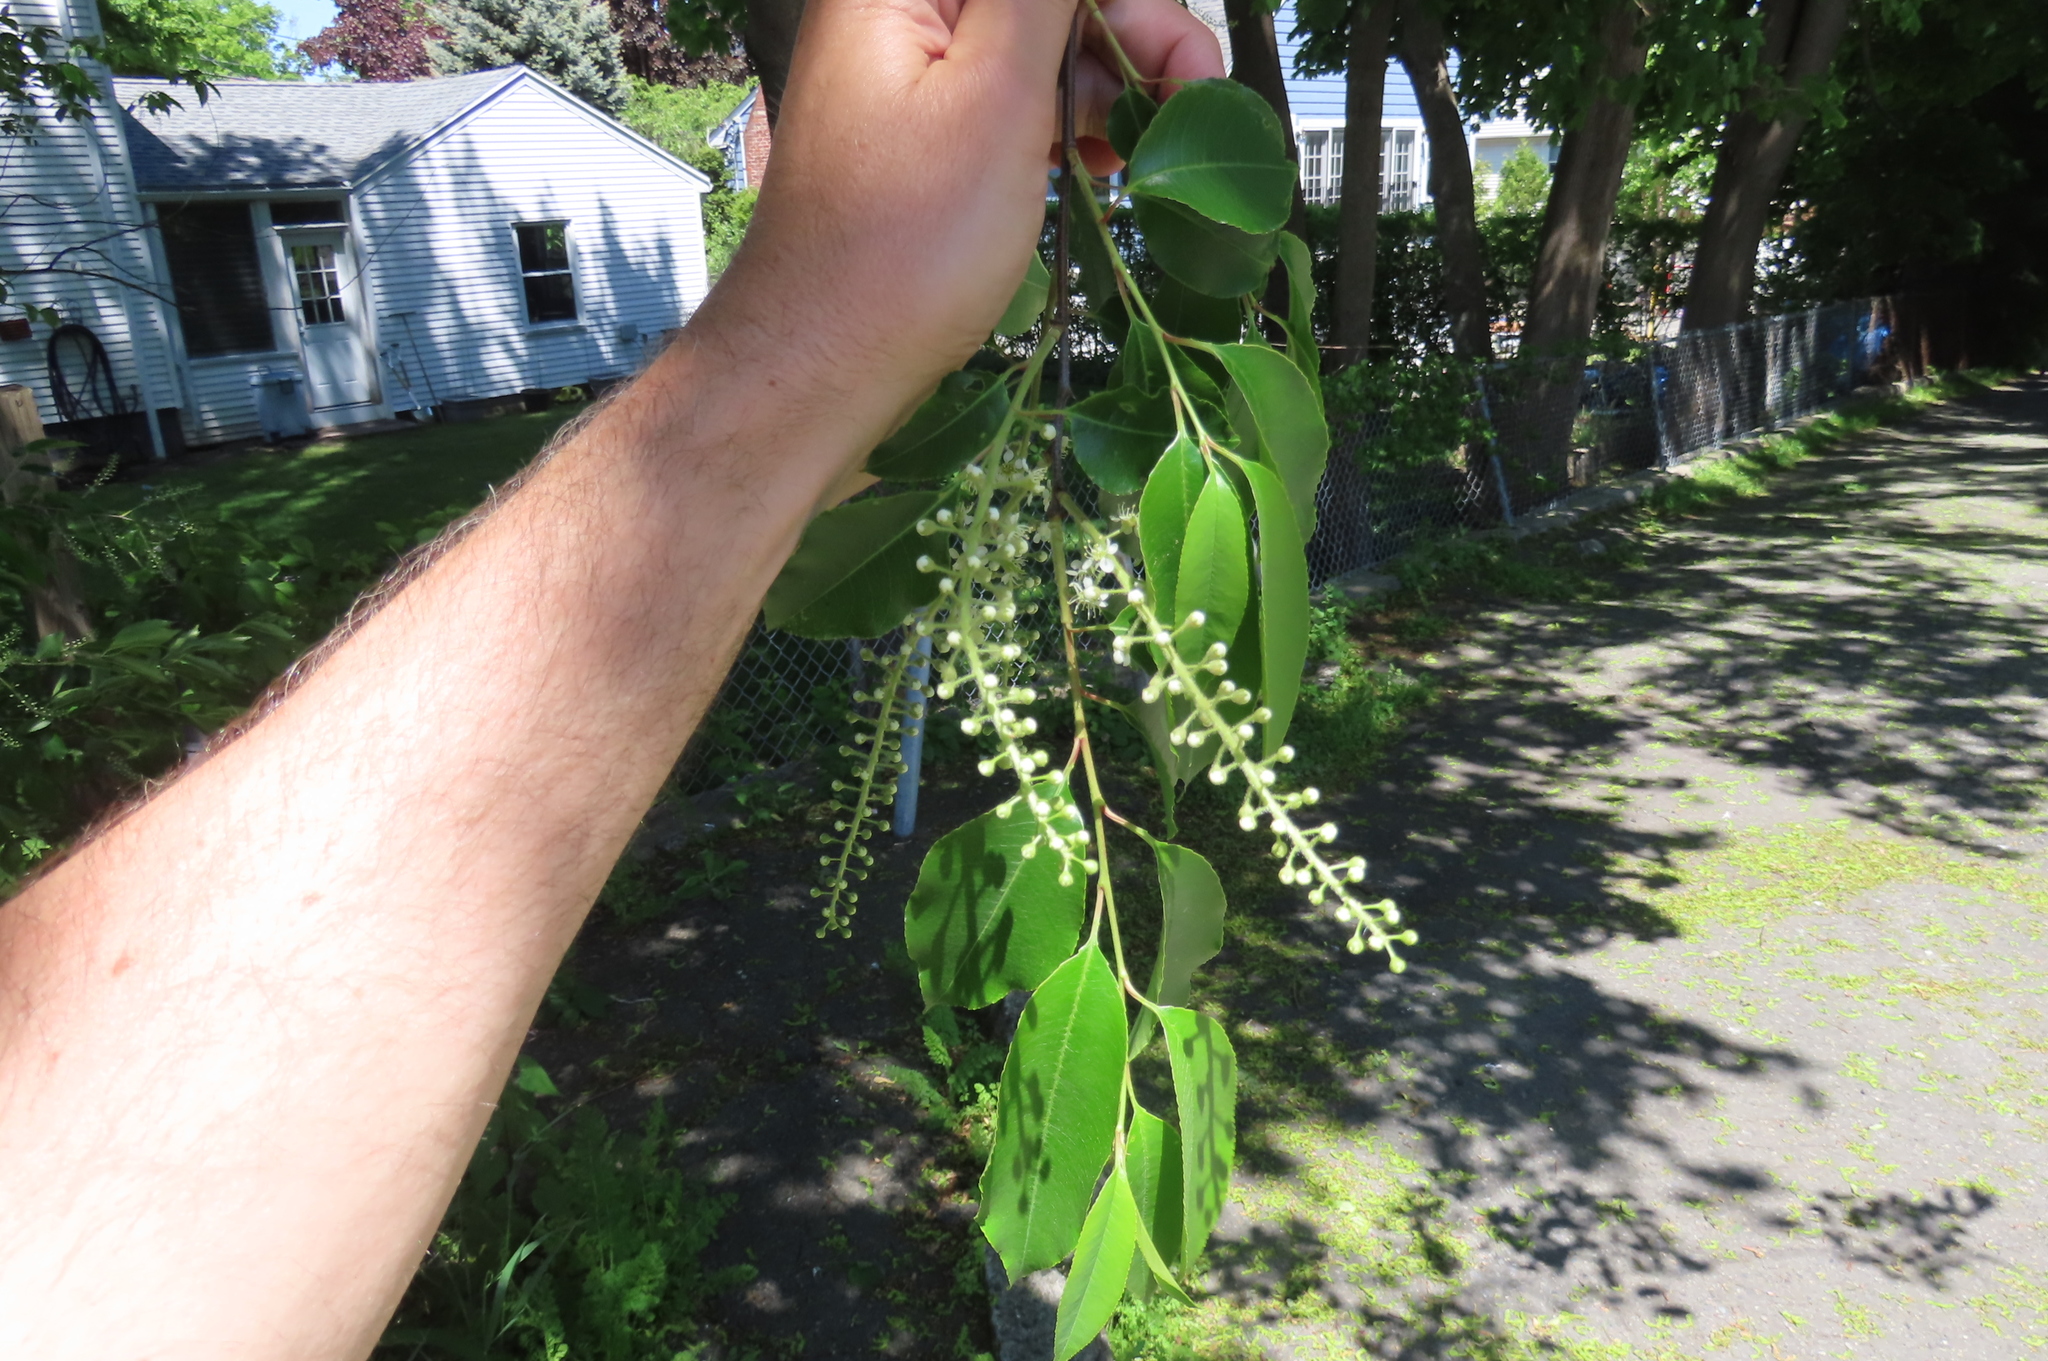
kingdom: Plantae
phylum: Tracheophyta
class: Magnoliopsida
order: Rosales
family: Rosaceae
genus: Prunus
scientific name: Prunus serotina
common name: Black cherry
